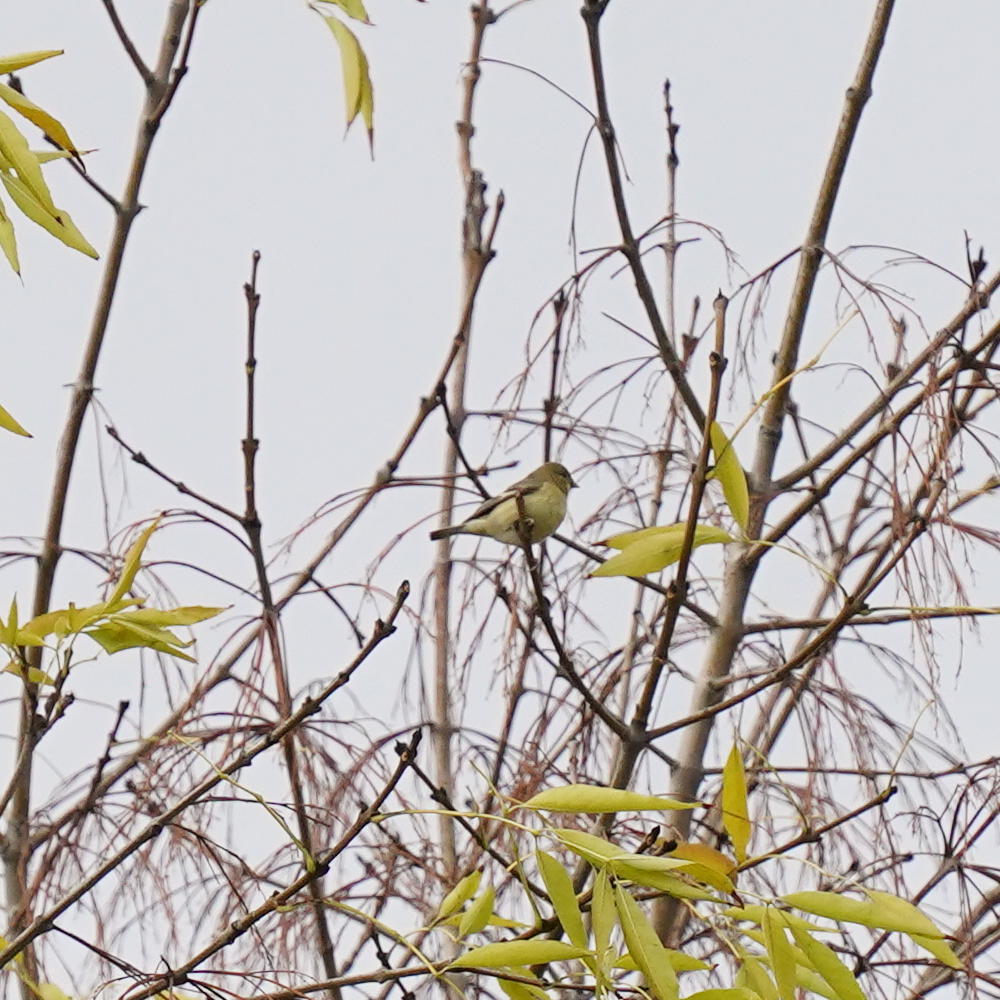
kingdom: Animalia
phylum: Chordata
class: Aves
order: Passeriformes
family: Fringillidae
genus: Spinus
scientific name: Spinus psaltria
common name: Lesser goldfinch
